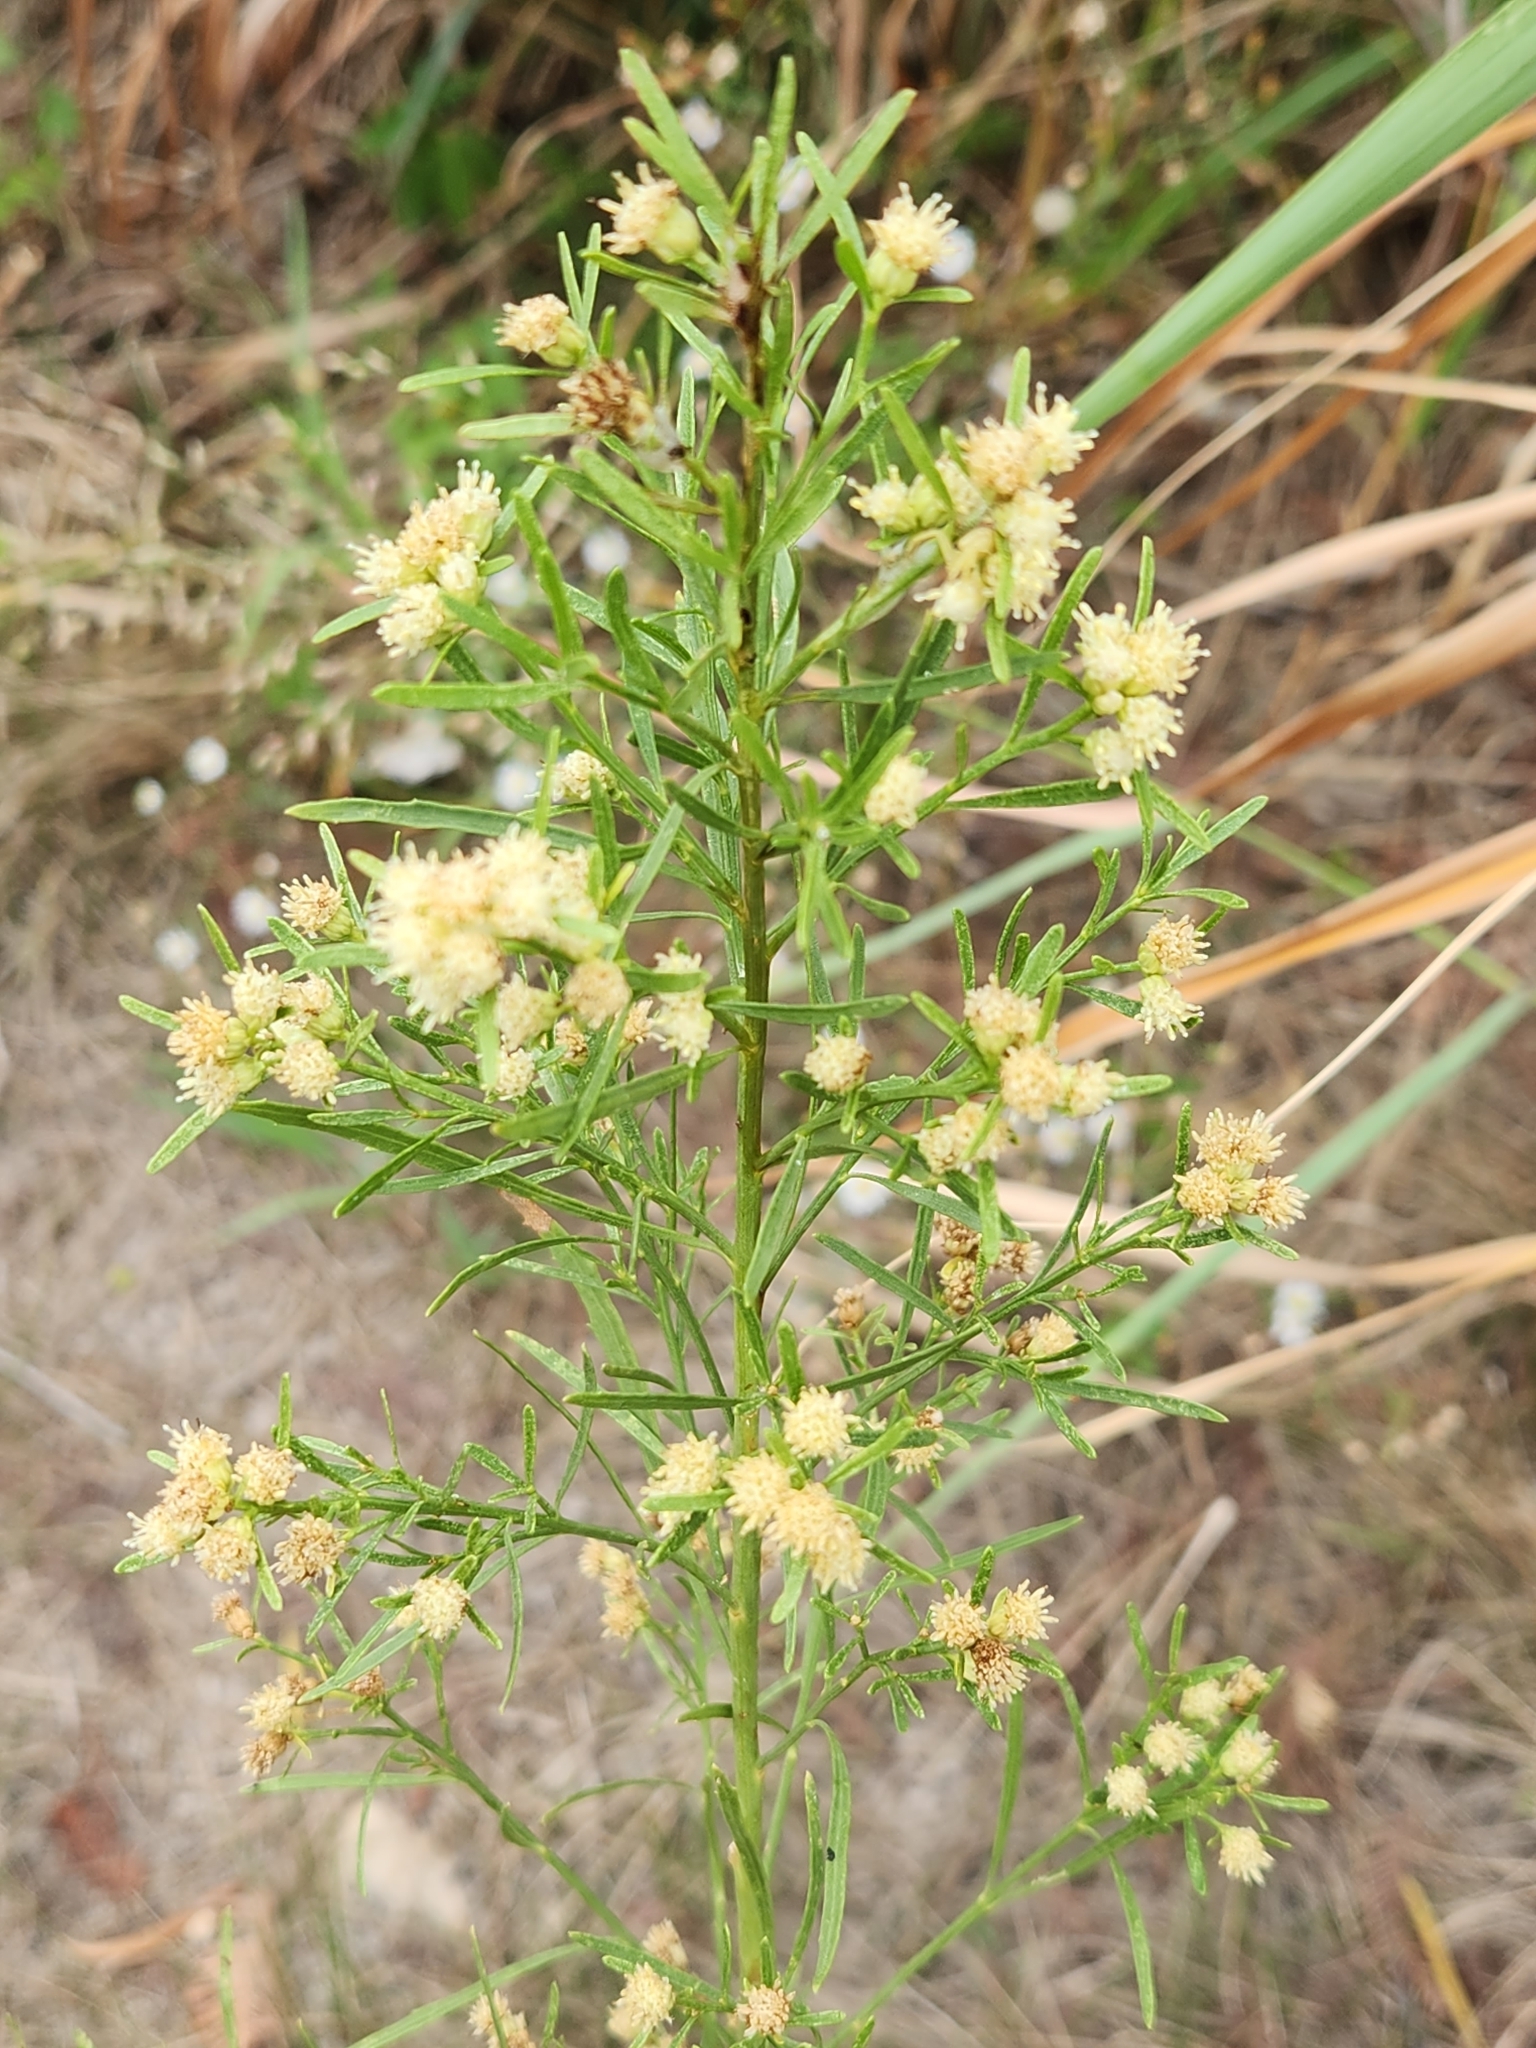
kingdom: Plantae
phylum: Tracheophyta
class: Magnoliopsida
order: Asterales
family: Asteraceae
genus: Baccharis
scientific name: Baccharis neglecta
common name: Roosevelt-weed
